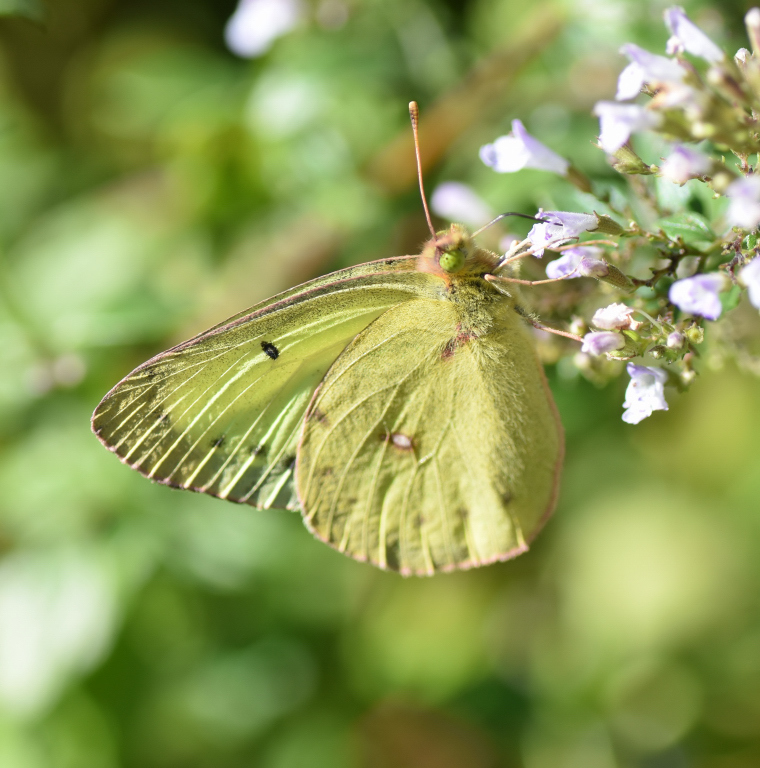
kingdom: Animalia
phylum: Arthropoda
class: Insecta
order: Lepidoptera
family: Pieridae
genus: Colias
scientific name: Colias philodice
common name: Clouded sulphur
